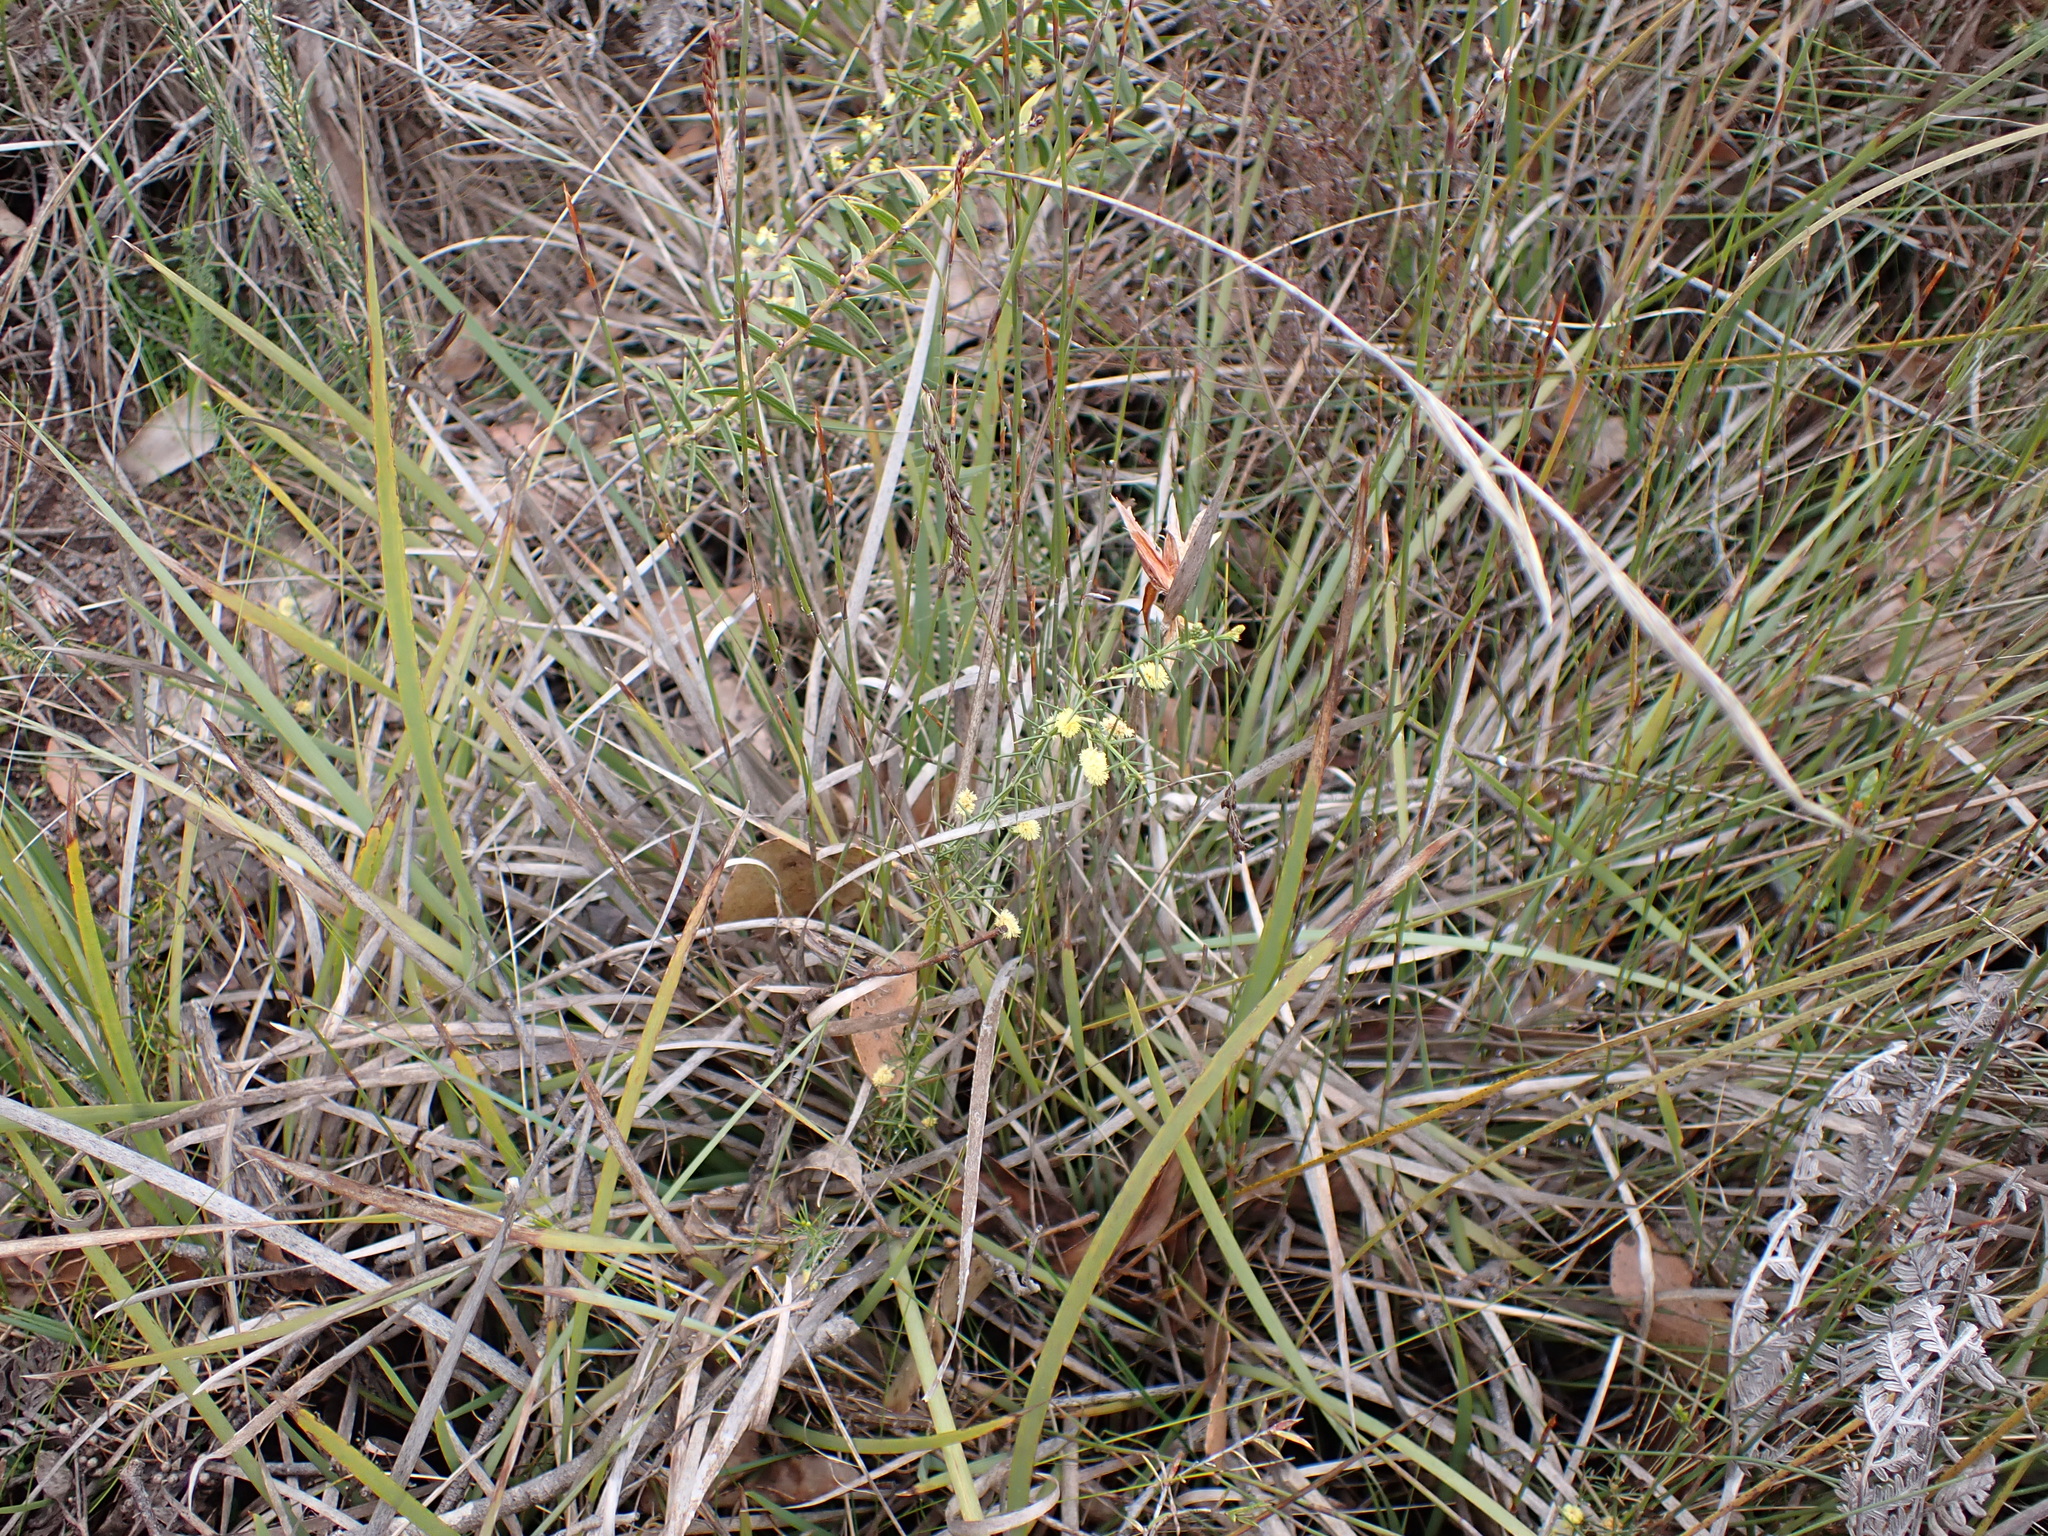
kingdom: Plantae
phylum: Tracheophyta
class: Magnoliopsida
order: Fabales
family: Fabaceae
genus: Acacia
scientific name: Acacia verticillata
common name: Prickly moses
